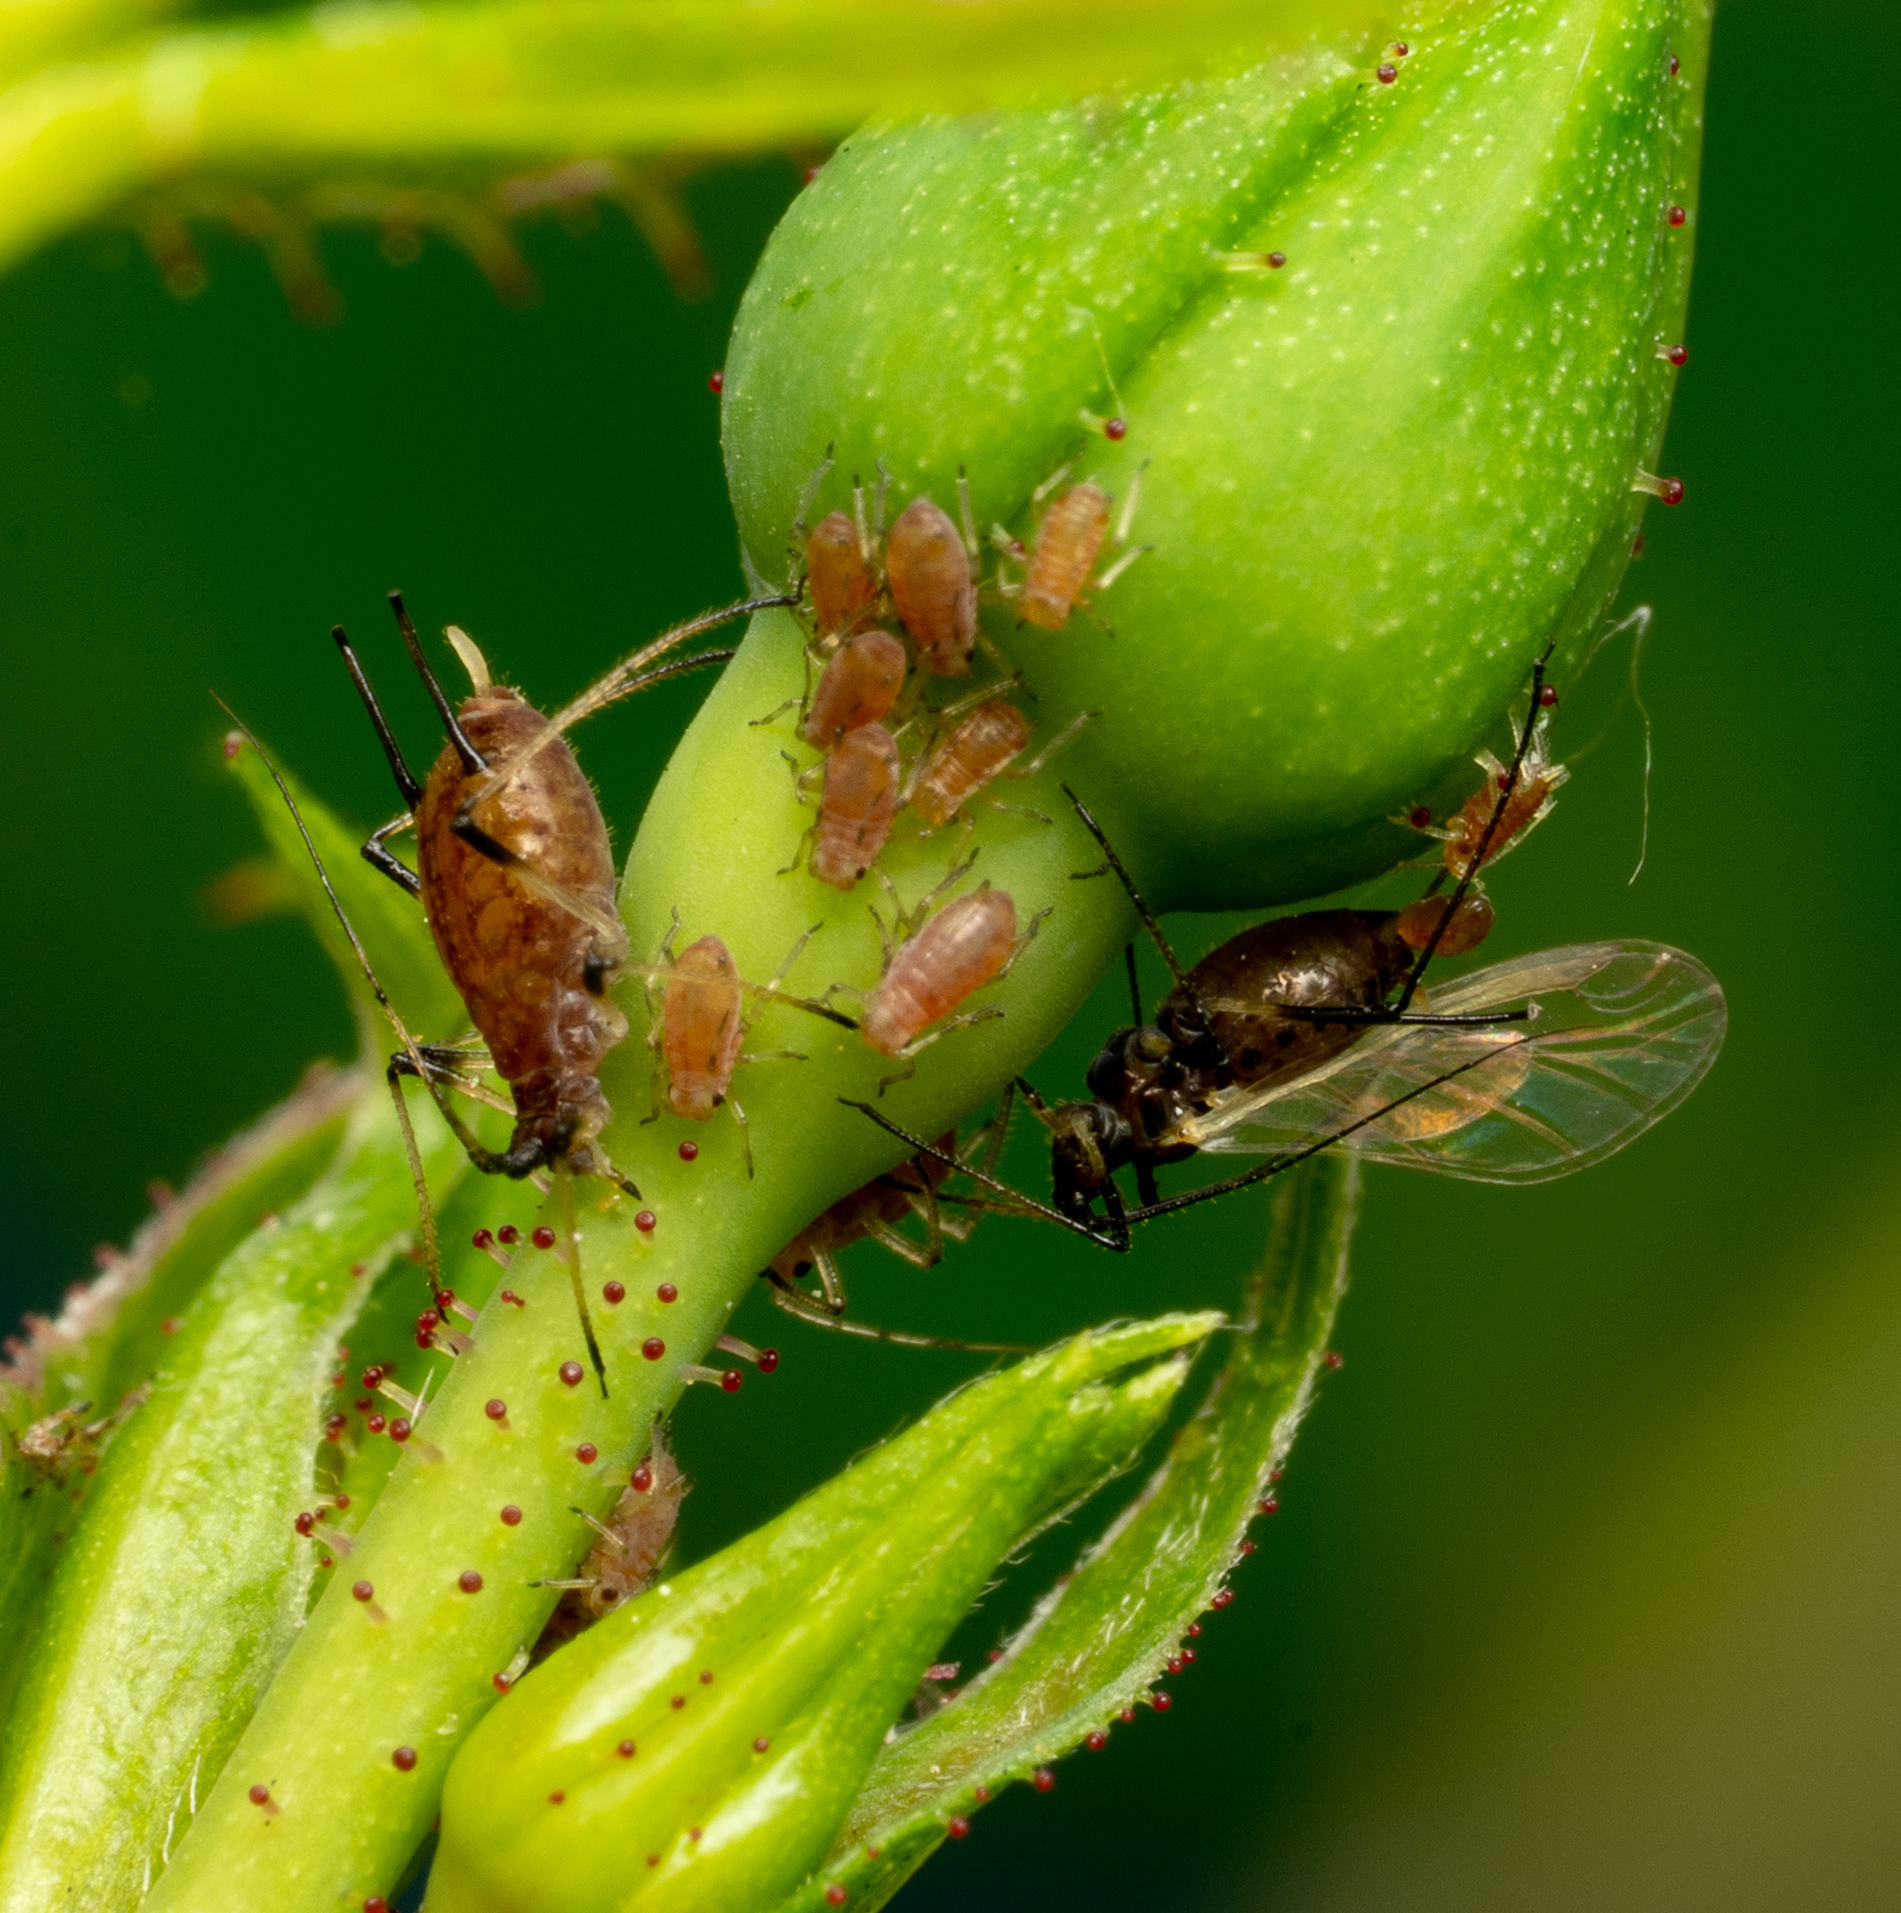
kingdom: Animalia
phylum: Arthropoda
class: Insecta
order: Hemiptera
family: Aphididae
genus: Macrosiphum
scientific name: Macrosiphum rosae
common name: Rose aphid
